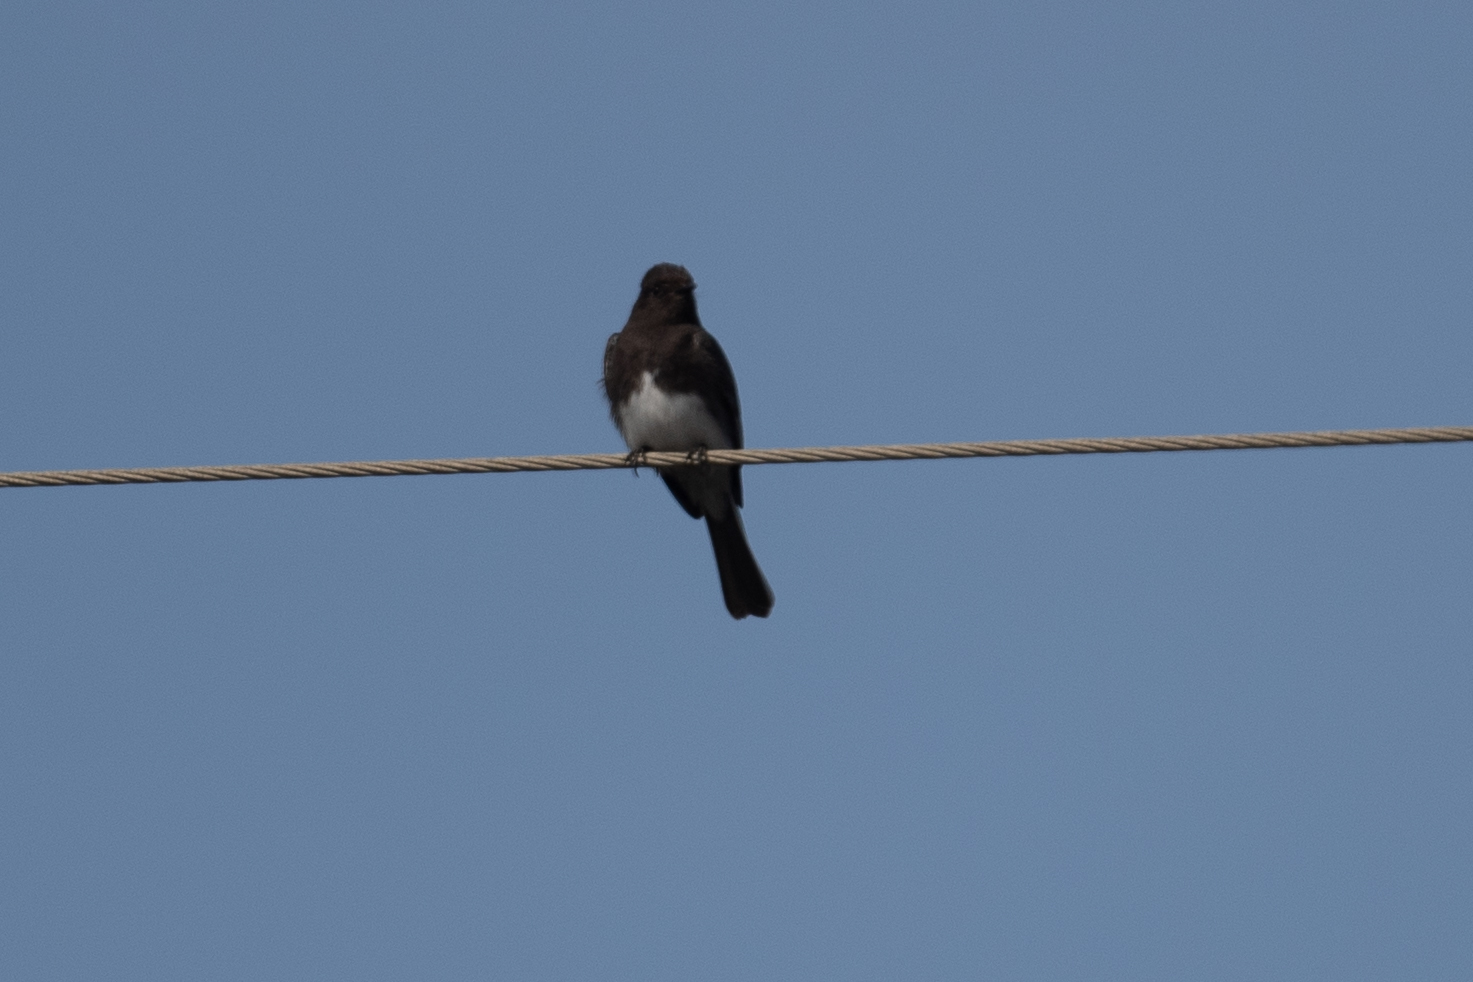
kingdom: Animalia
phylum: Chordata
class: Aves
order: Passeriformes
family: Tyrannidae
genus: Sayornis
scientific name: Sayornis nigricans
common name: Black phoebe
